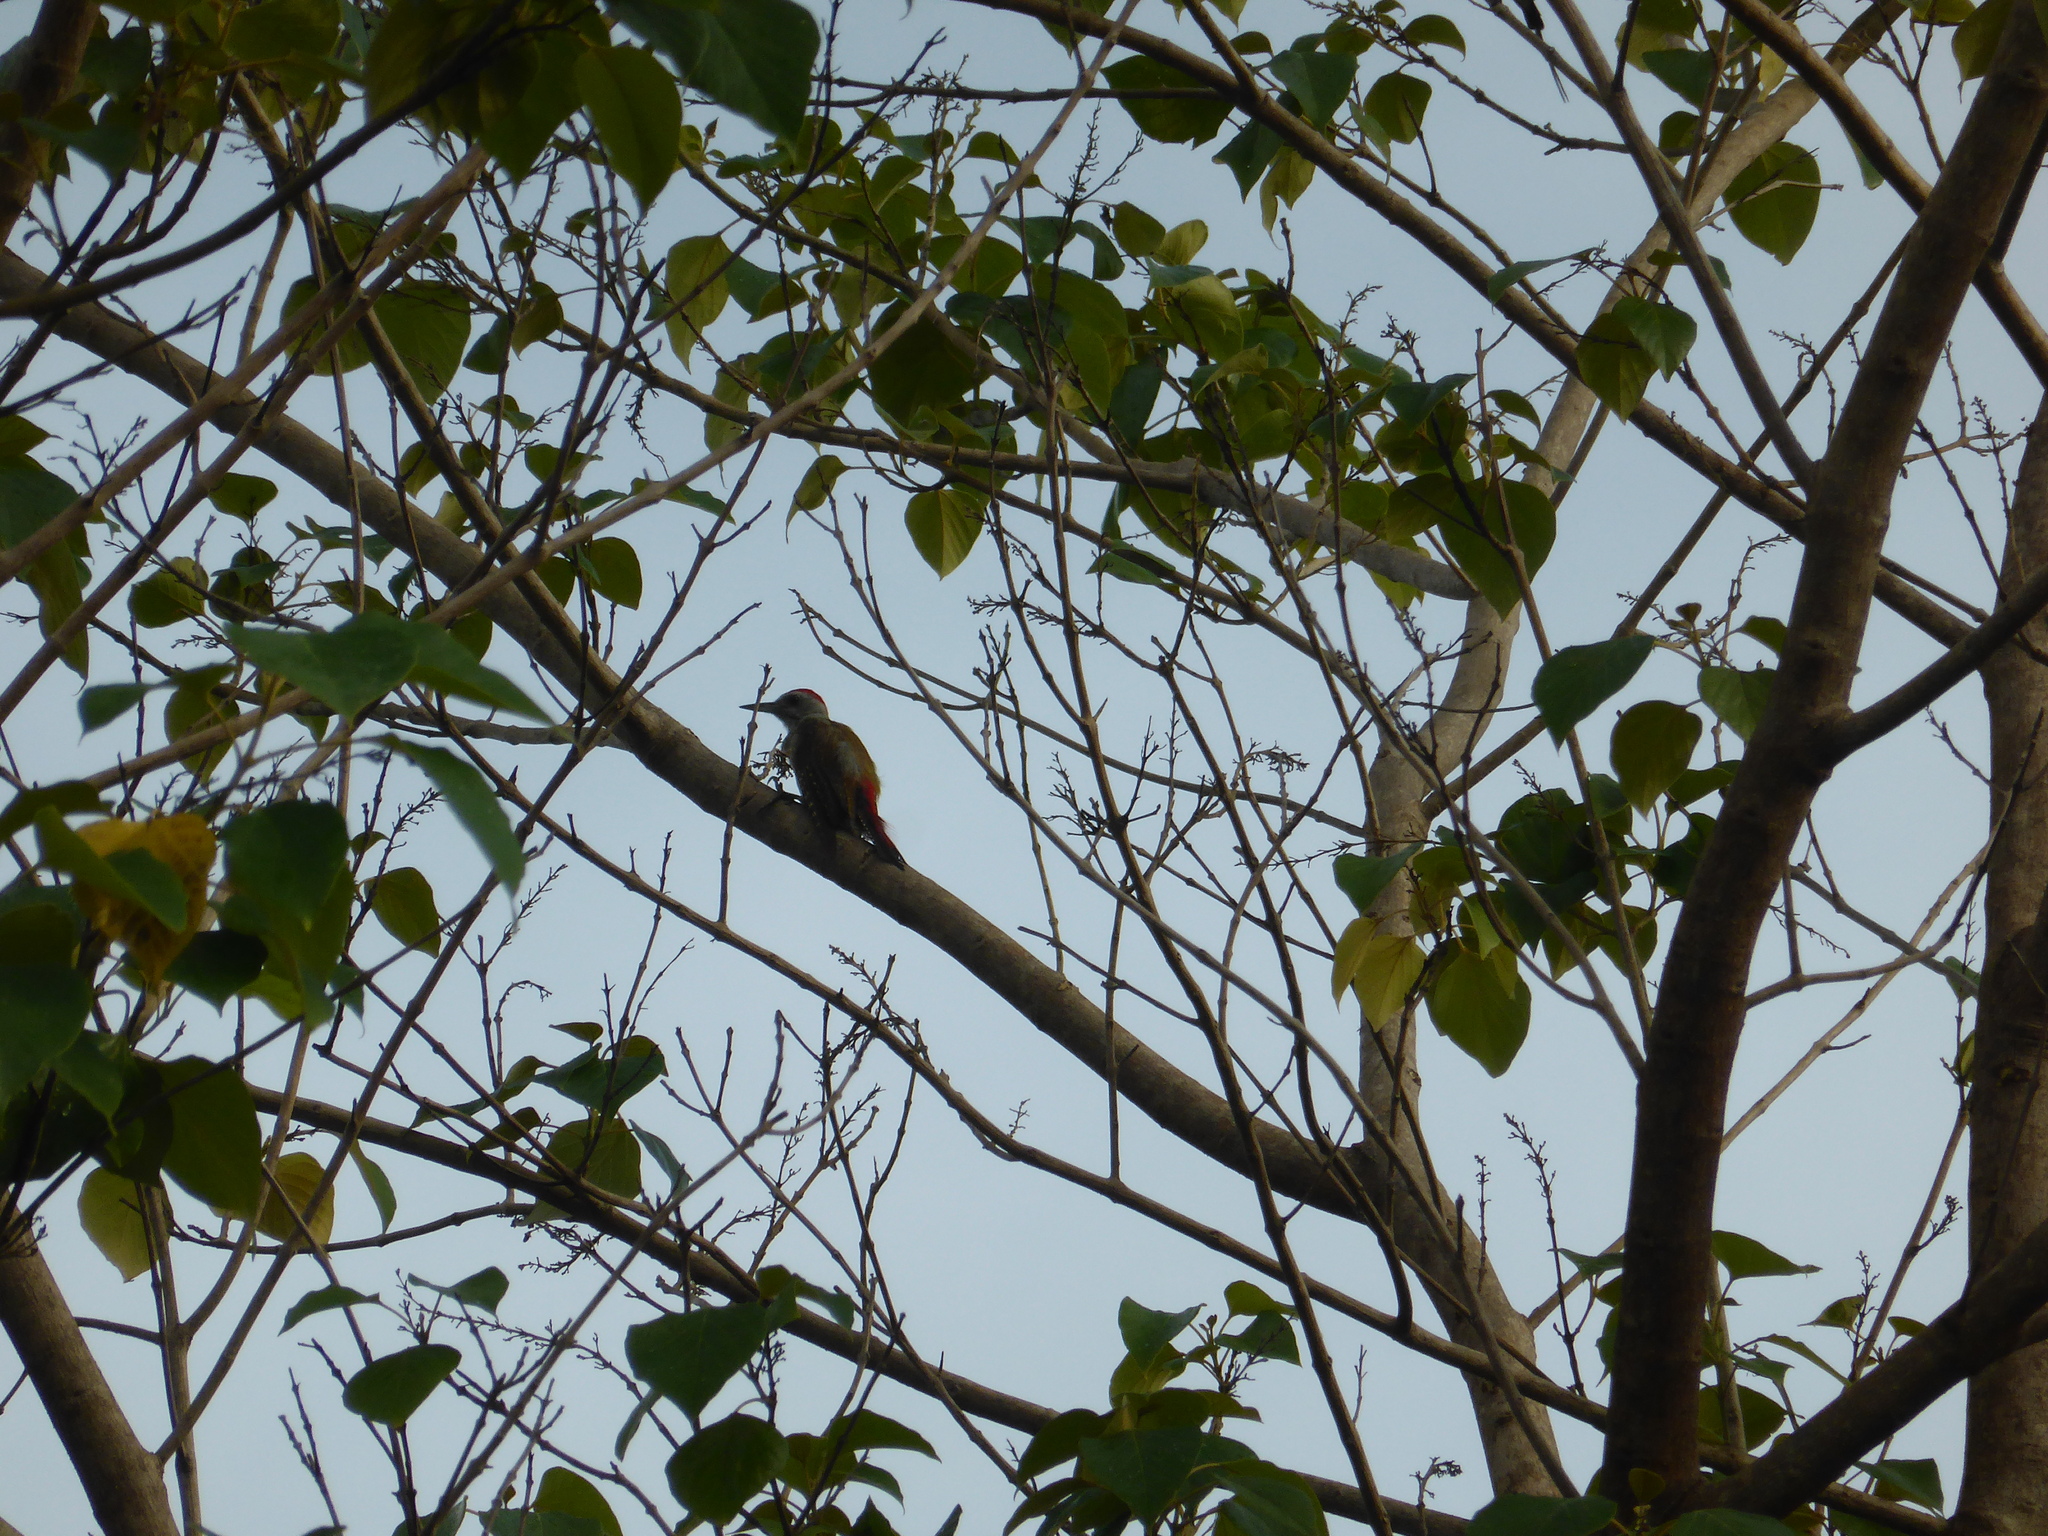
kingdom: Animalia
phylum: Chordata
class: Aves
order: Piciformes
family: Picidae
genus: Dendropicos
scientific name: Dendropicos goertae
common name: African grey woodpecker
